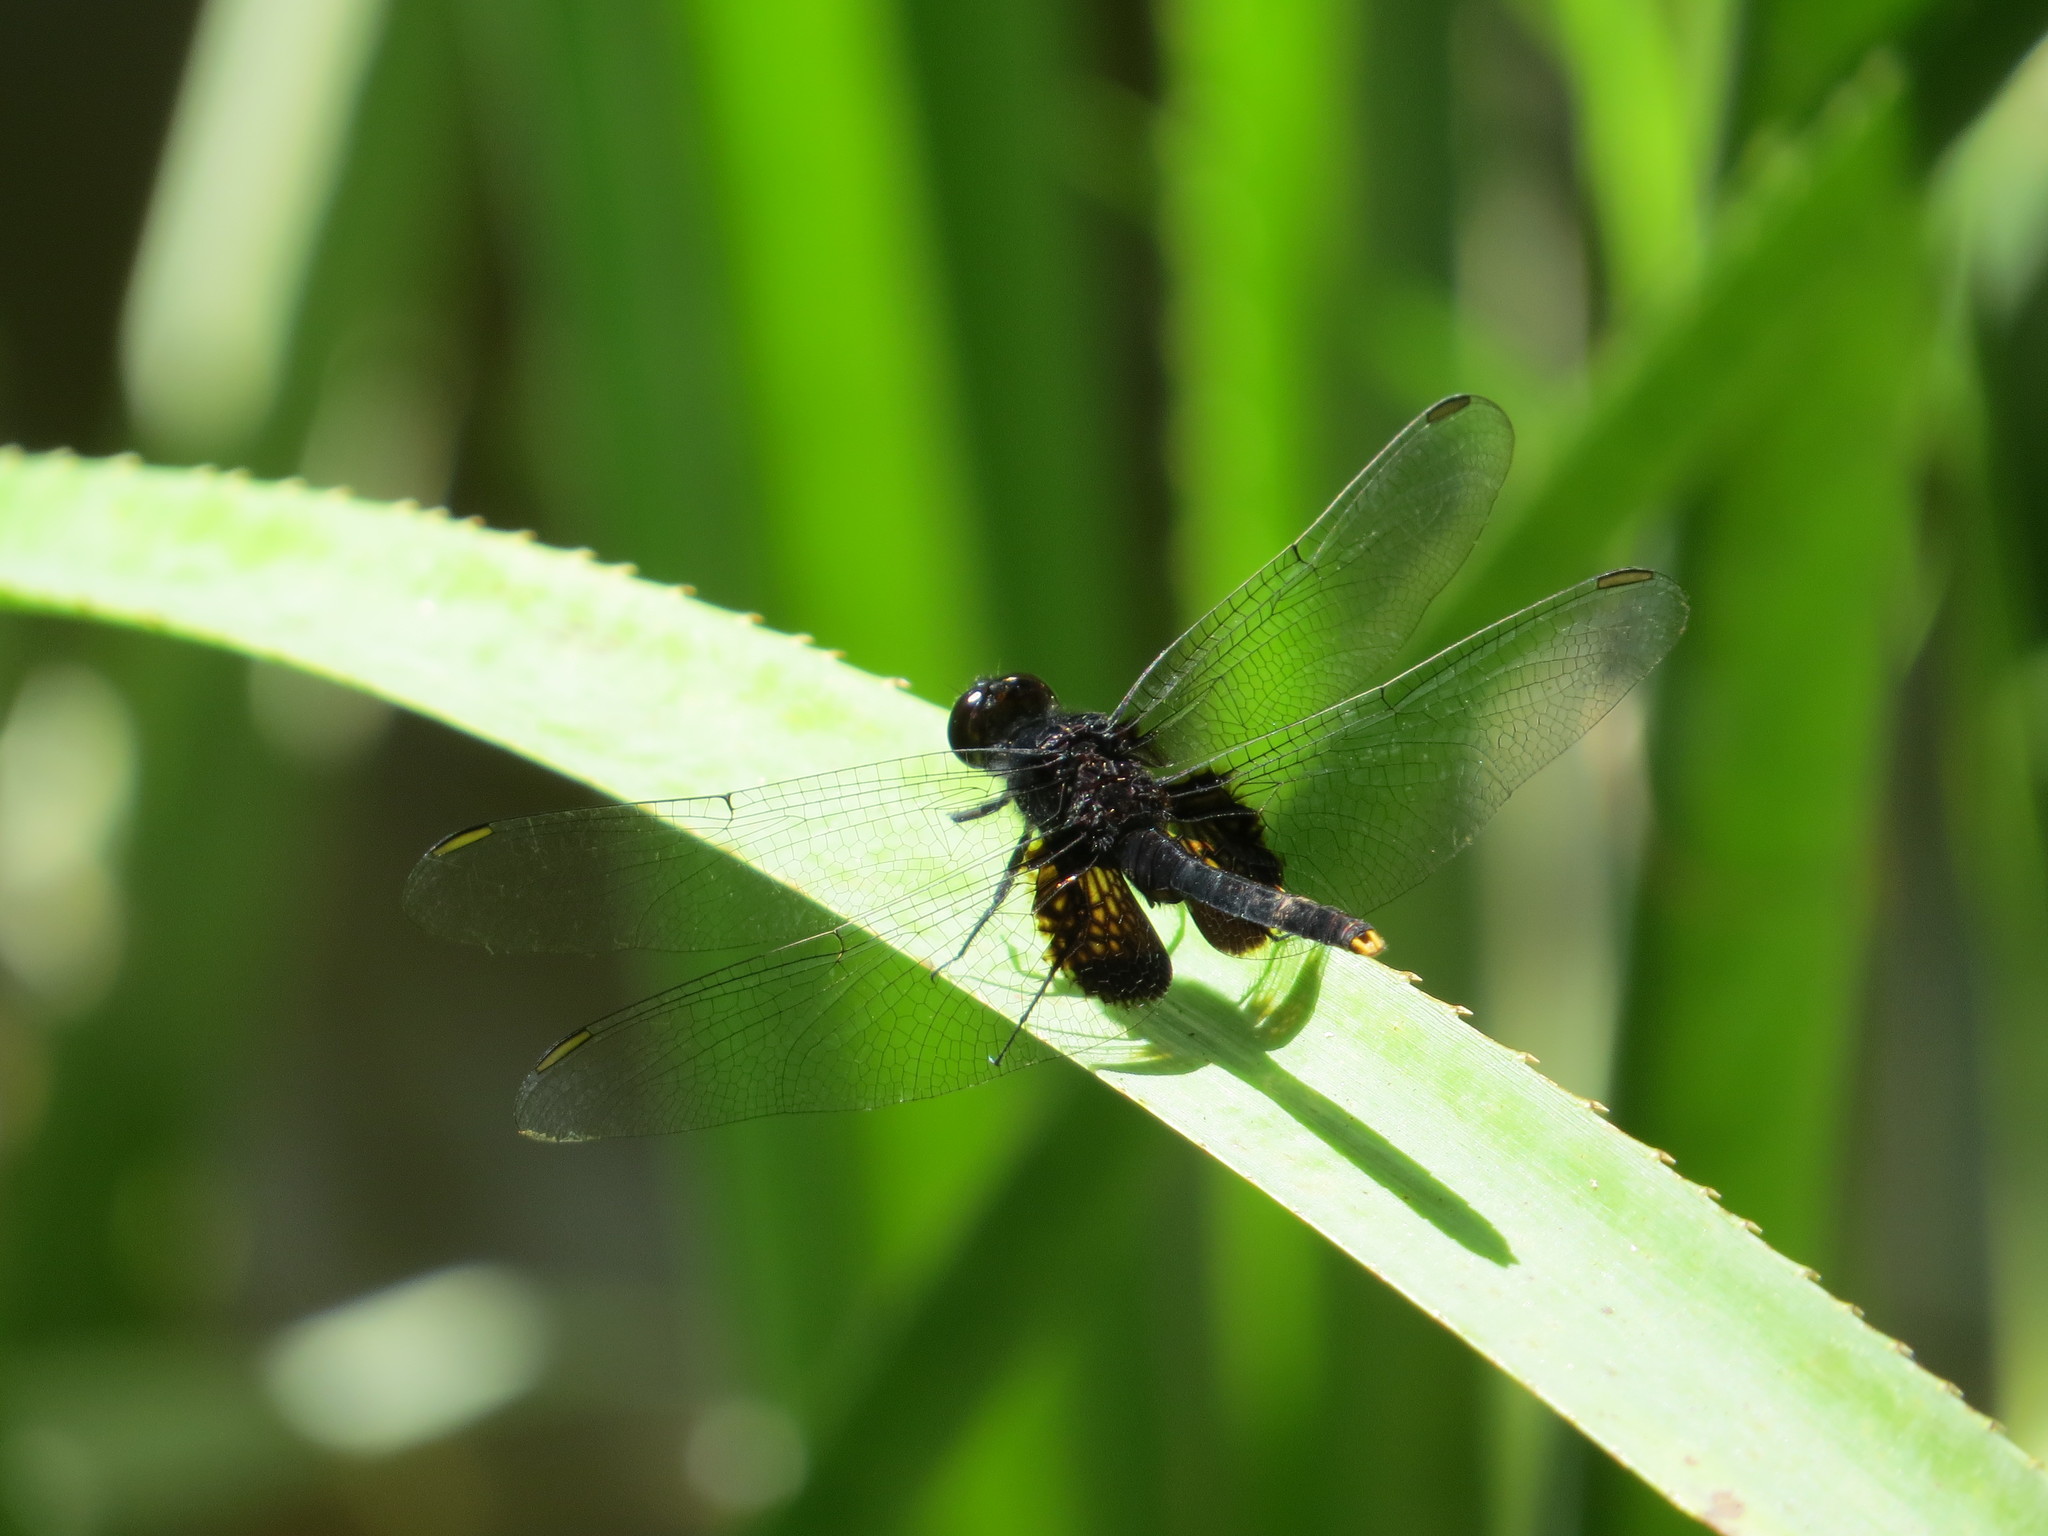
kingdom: Animalia
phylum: Arthropoda
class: Insecta
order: Odonata
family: Libellulidae
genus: Erythemis
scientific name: Erythemis attala
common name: Black pondhawk
